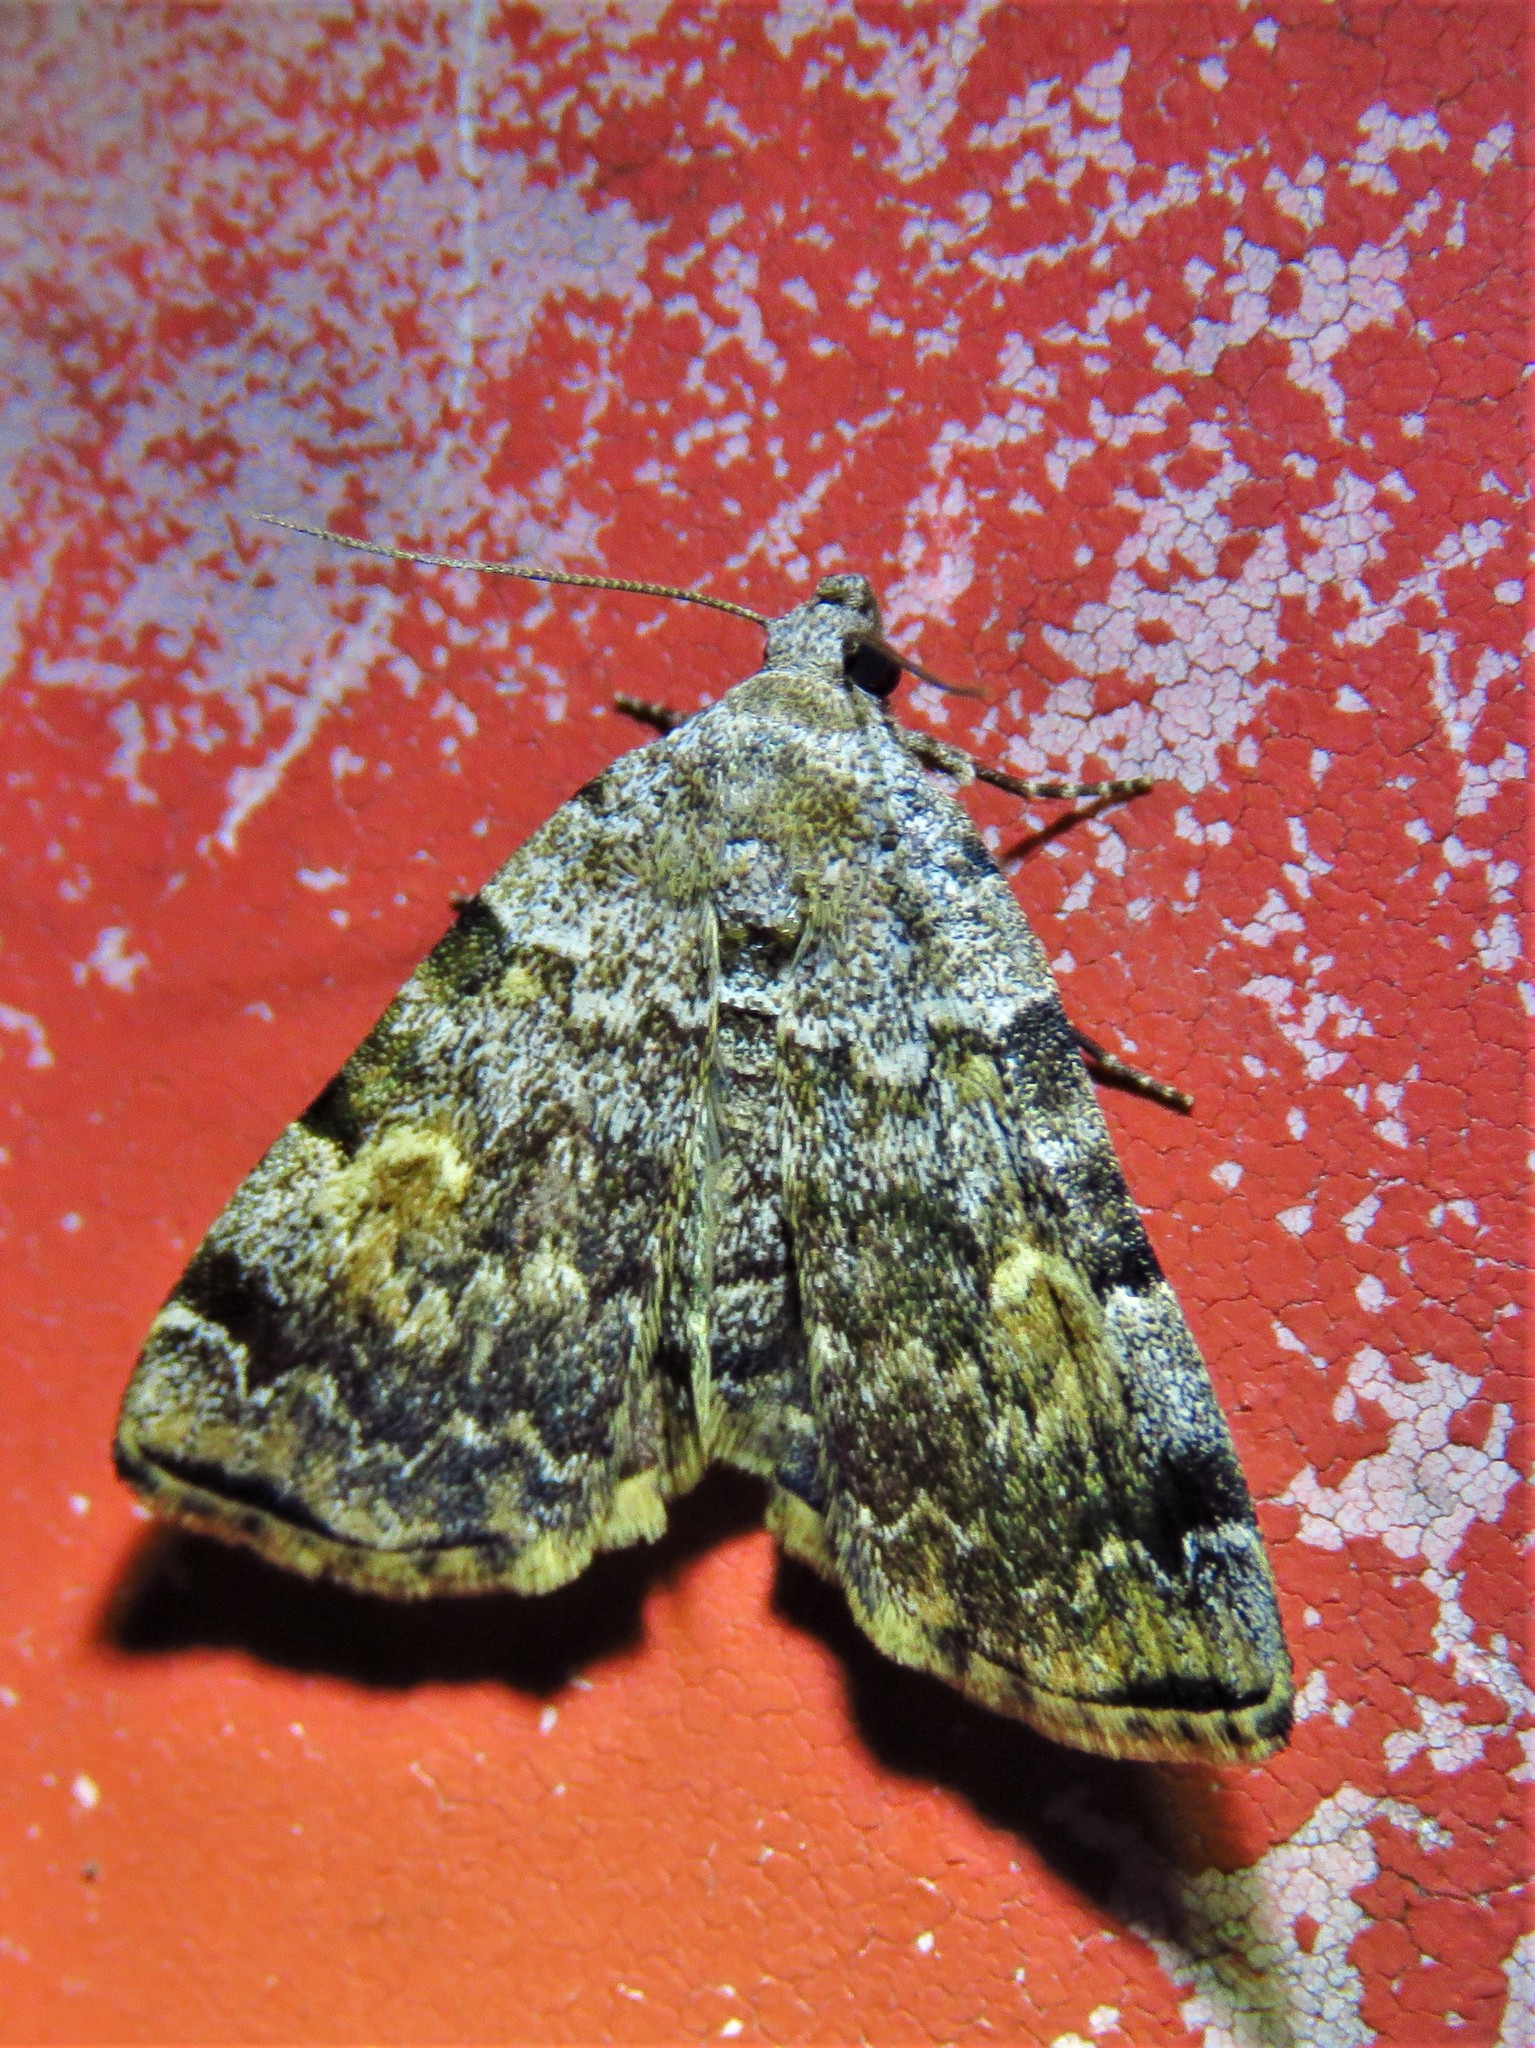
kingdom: Animalia
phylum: Arthropoda
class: Insecta
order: Lepidoptera
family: Erebidae
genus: Idia
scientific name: Idia americalis
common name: American idia moth
